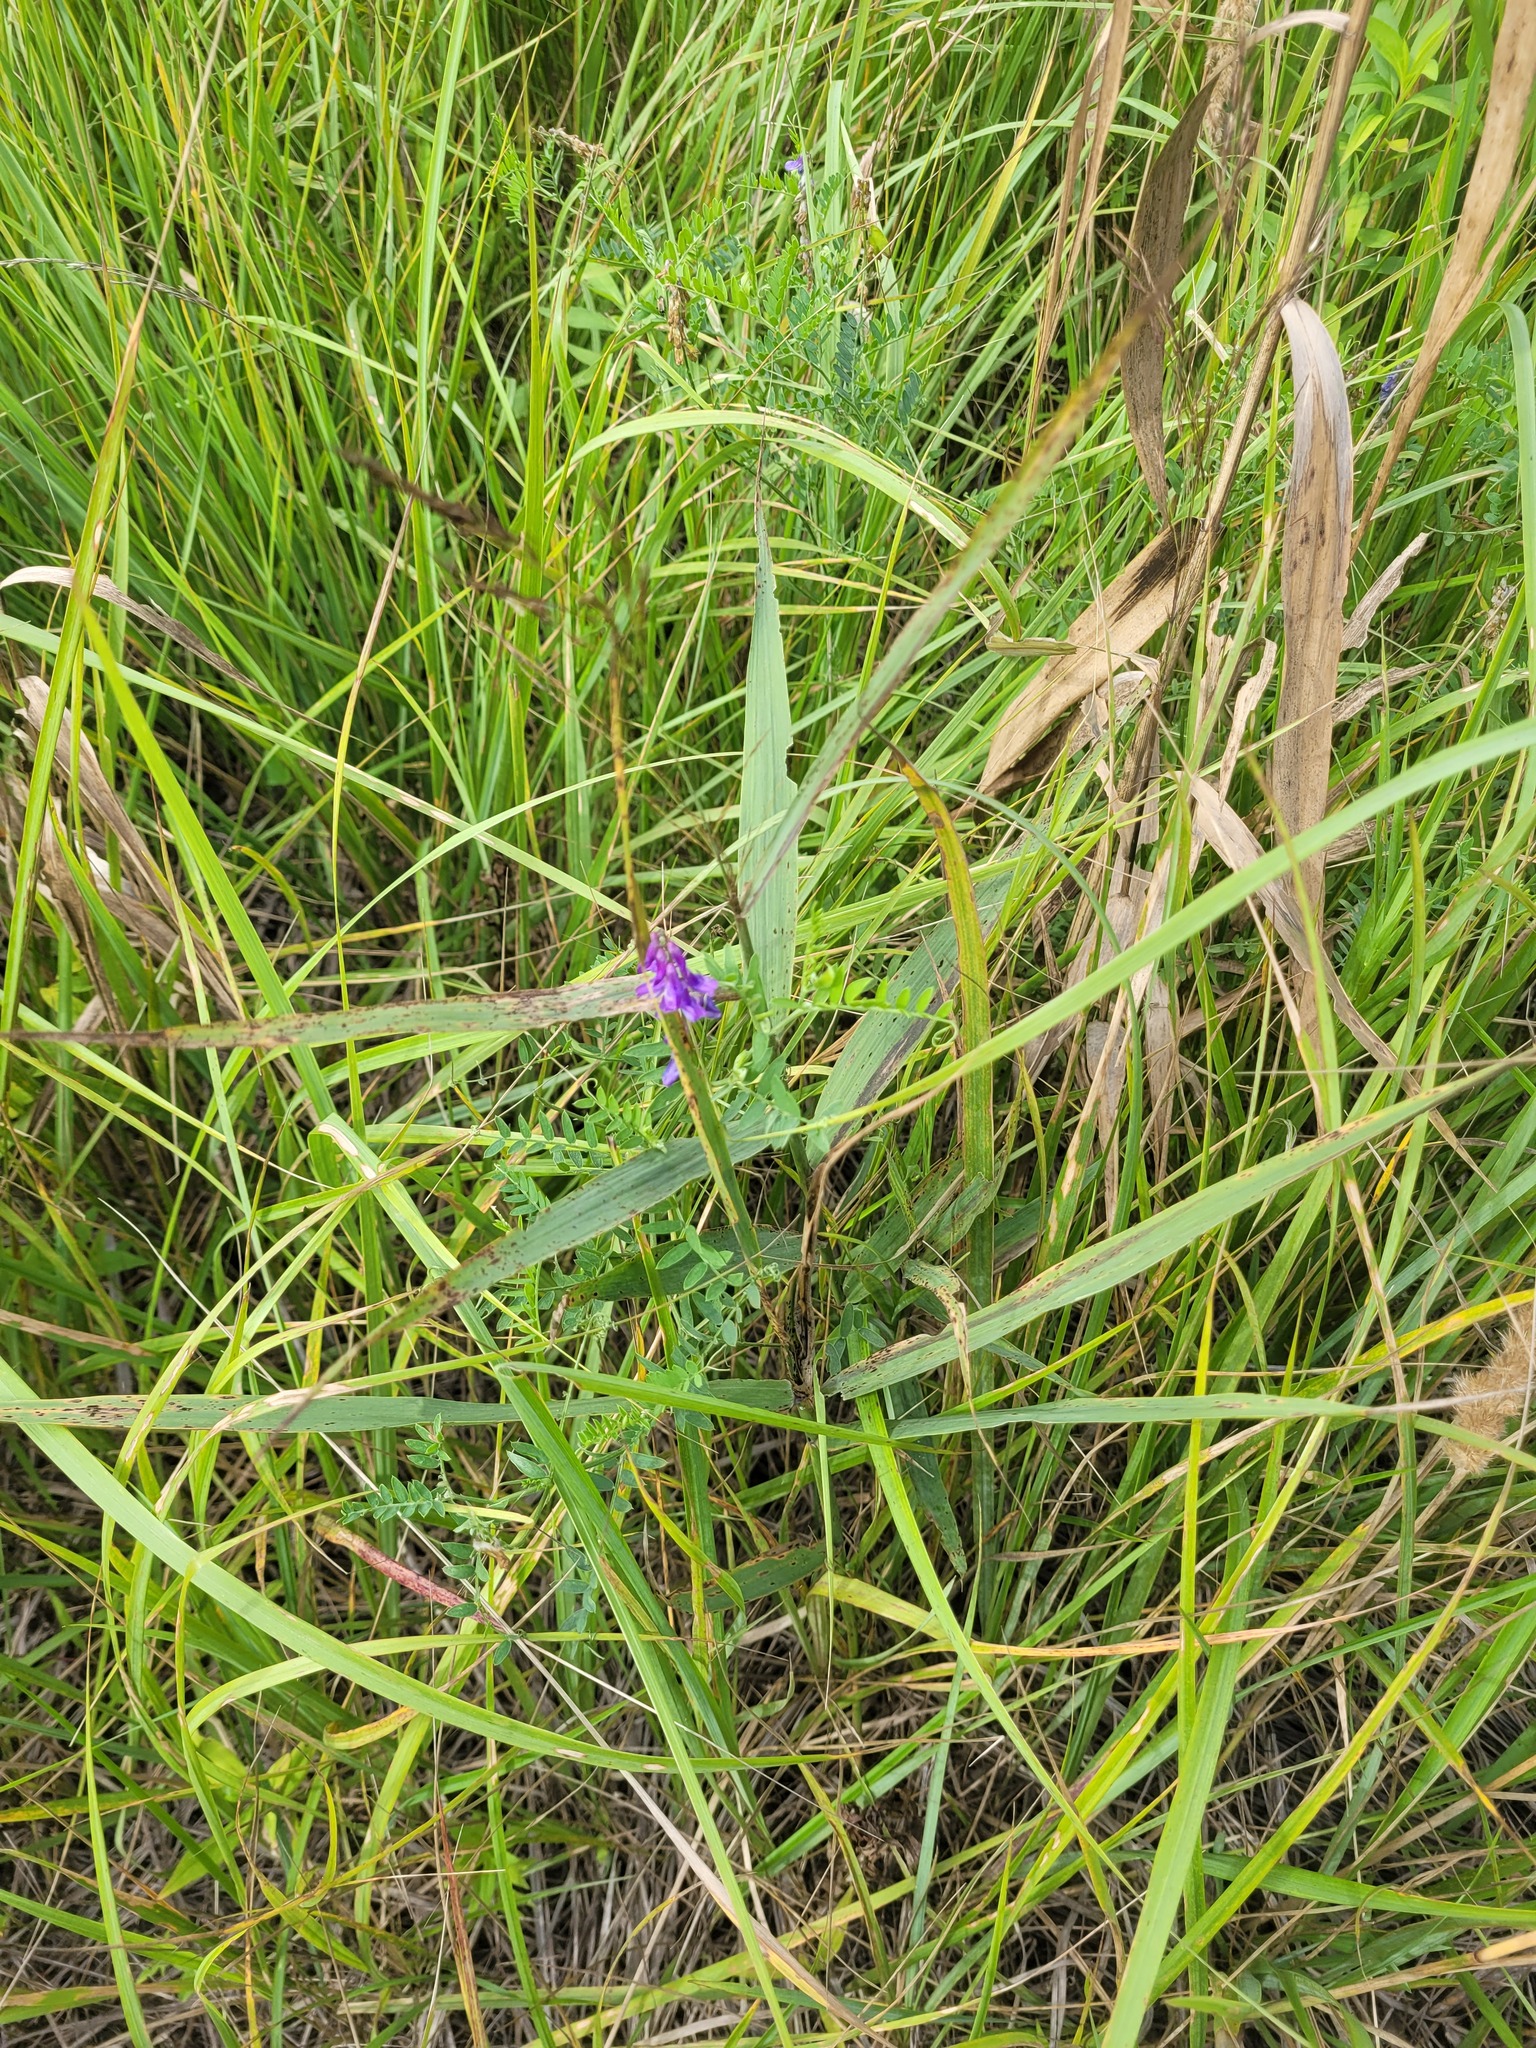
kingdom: Plantae
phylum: Tracheophyta
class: Magnoliopsida
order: Fabales
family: Fabaceae
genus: Vicia
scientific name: Vicia cracca
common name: Bird vetch
